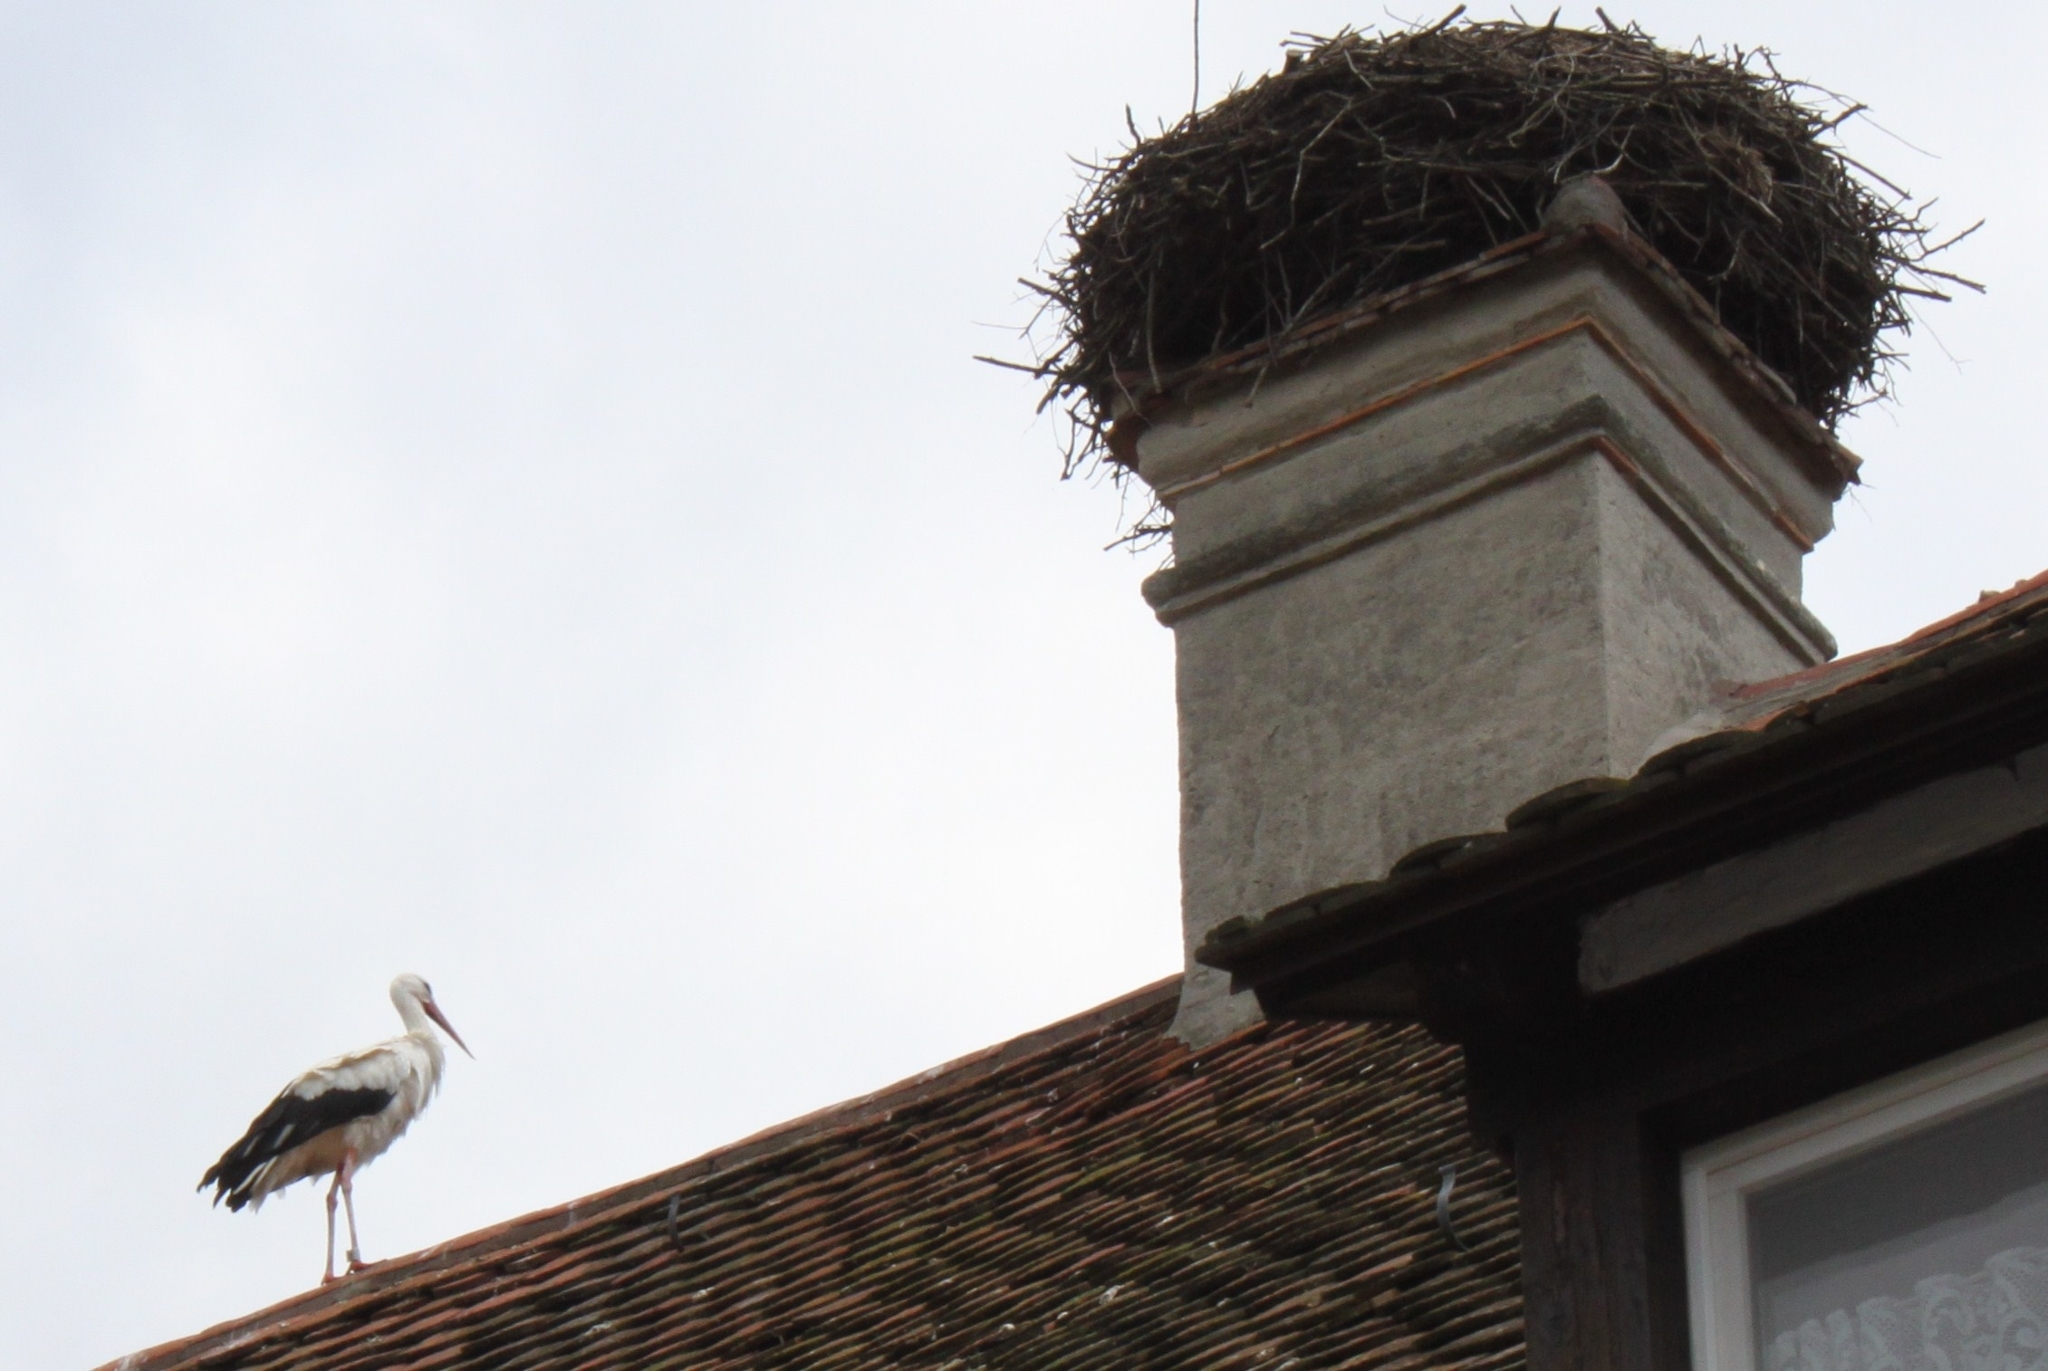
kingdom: Animalia
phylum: Chordata
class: Aves
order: Ciconiiformes
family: Ciconiidae
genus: Ciconia
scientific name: Ciconia ciconia
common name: White stork
